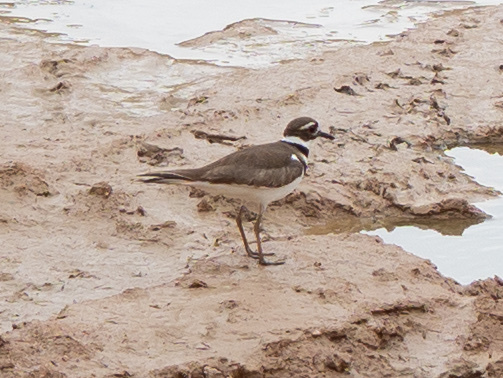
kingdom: Animalia
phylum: Chordata
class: Aves
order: Charadriiformes
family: Charadriidae
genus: Charadrius
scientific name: Charadrius vociferus
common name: Killdeer
